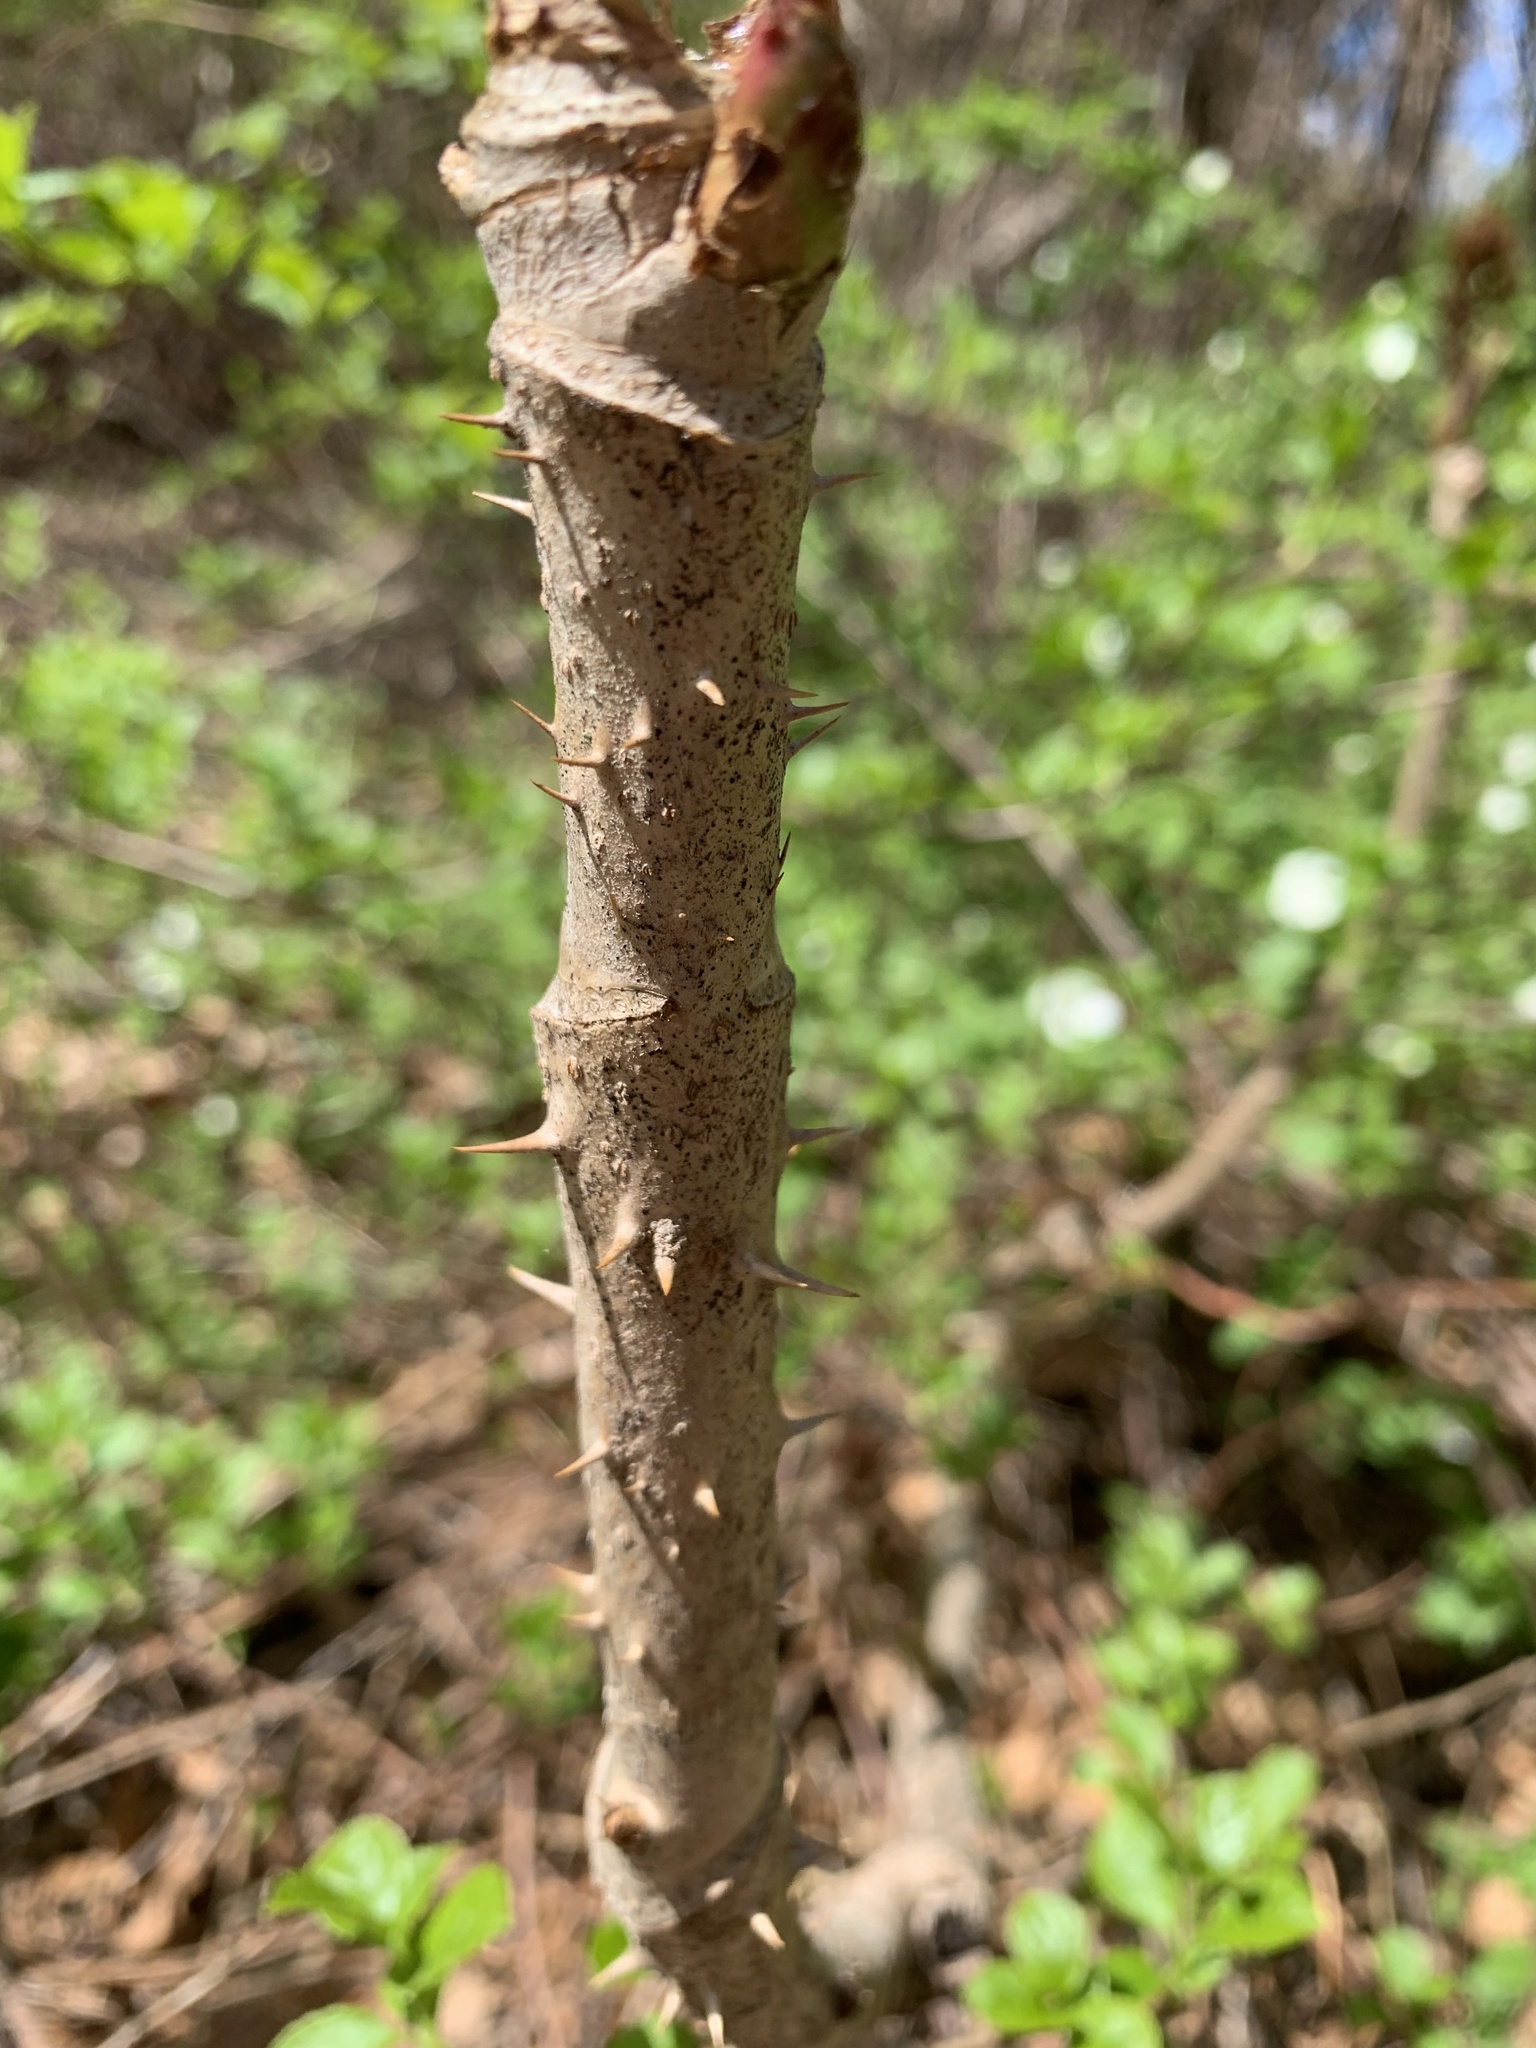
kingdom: Plantae
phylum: Tracheophyta
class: Magnoliopsida
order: Apiales
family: Araliaceae
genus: Aralia
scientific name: Aralia elata
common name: Japanese angelica-tree
